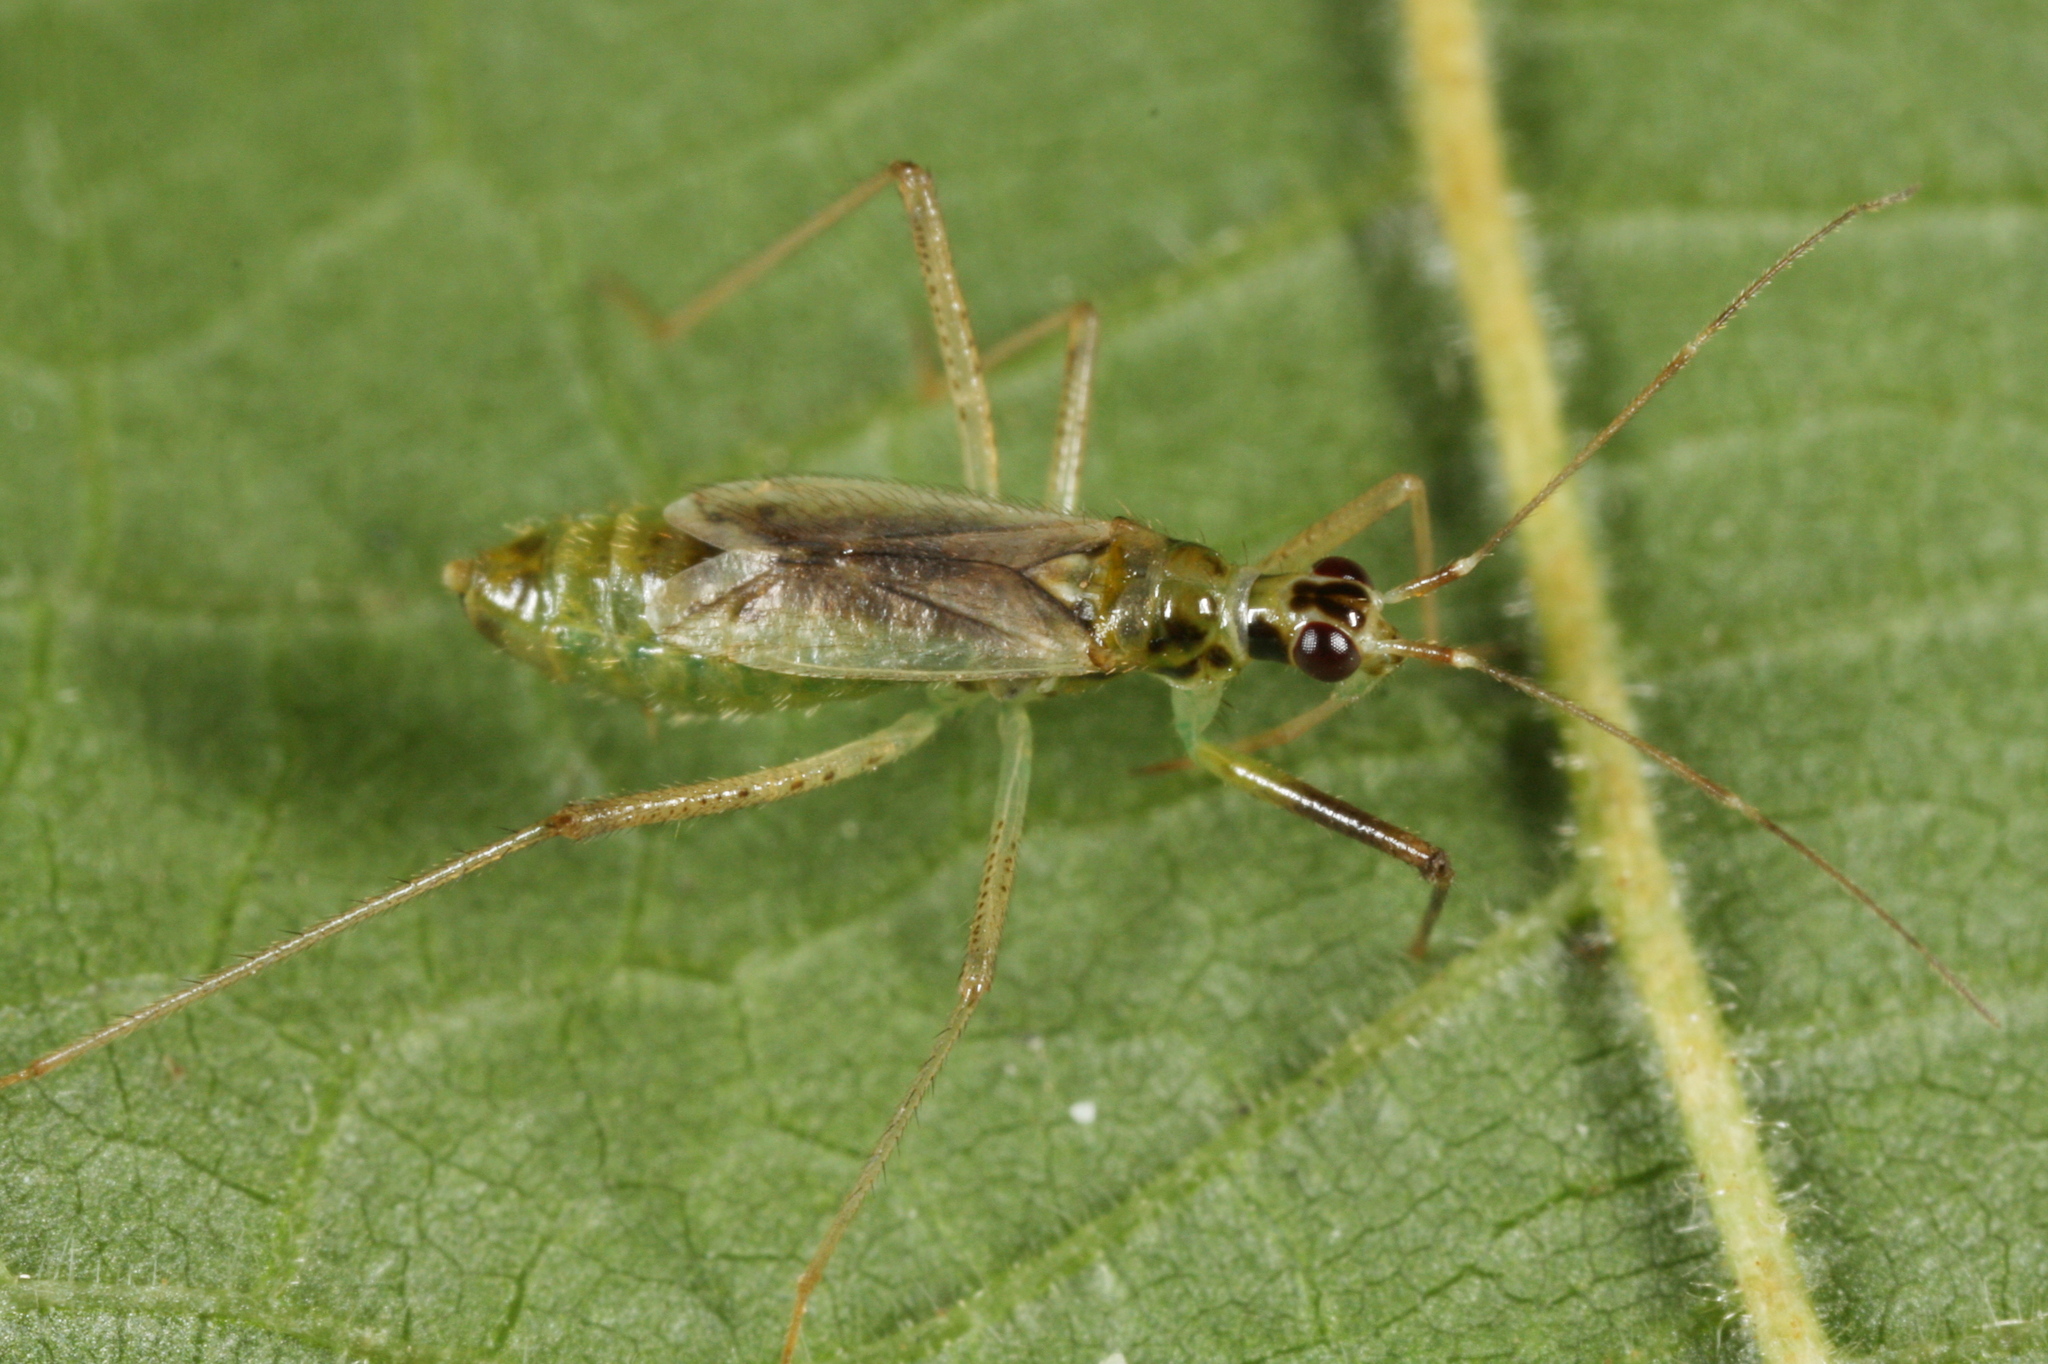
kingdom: Animalia
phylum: Arthropoda
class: Insecta
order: Hemiptera
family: Miridae
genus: Dicyphus
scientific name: Dicyphus pallidus
